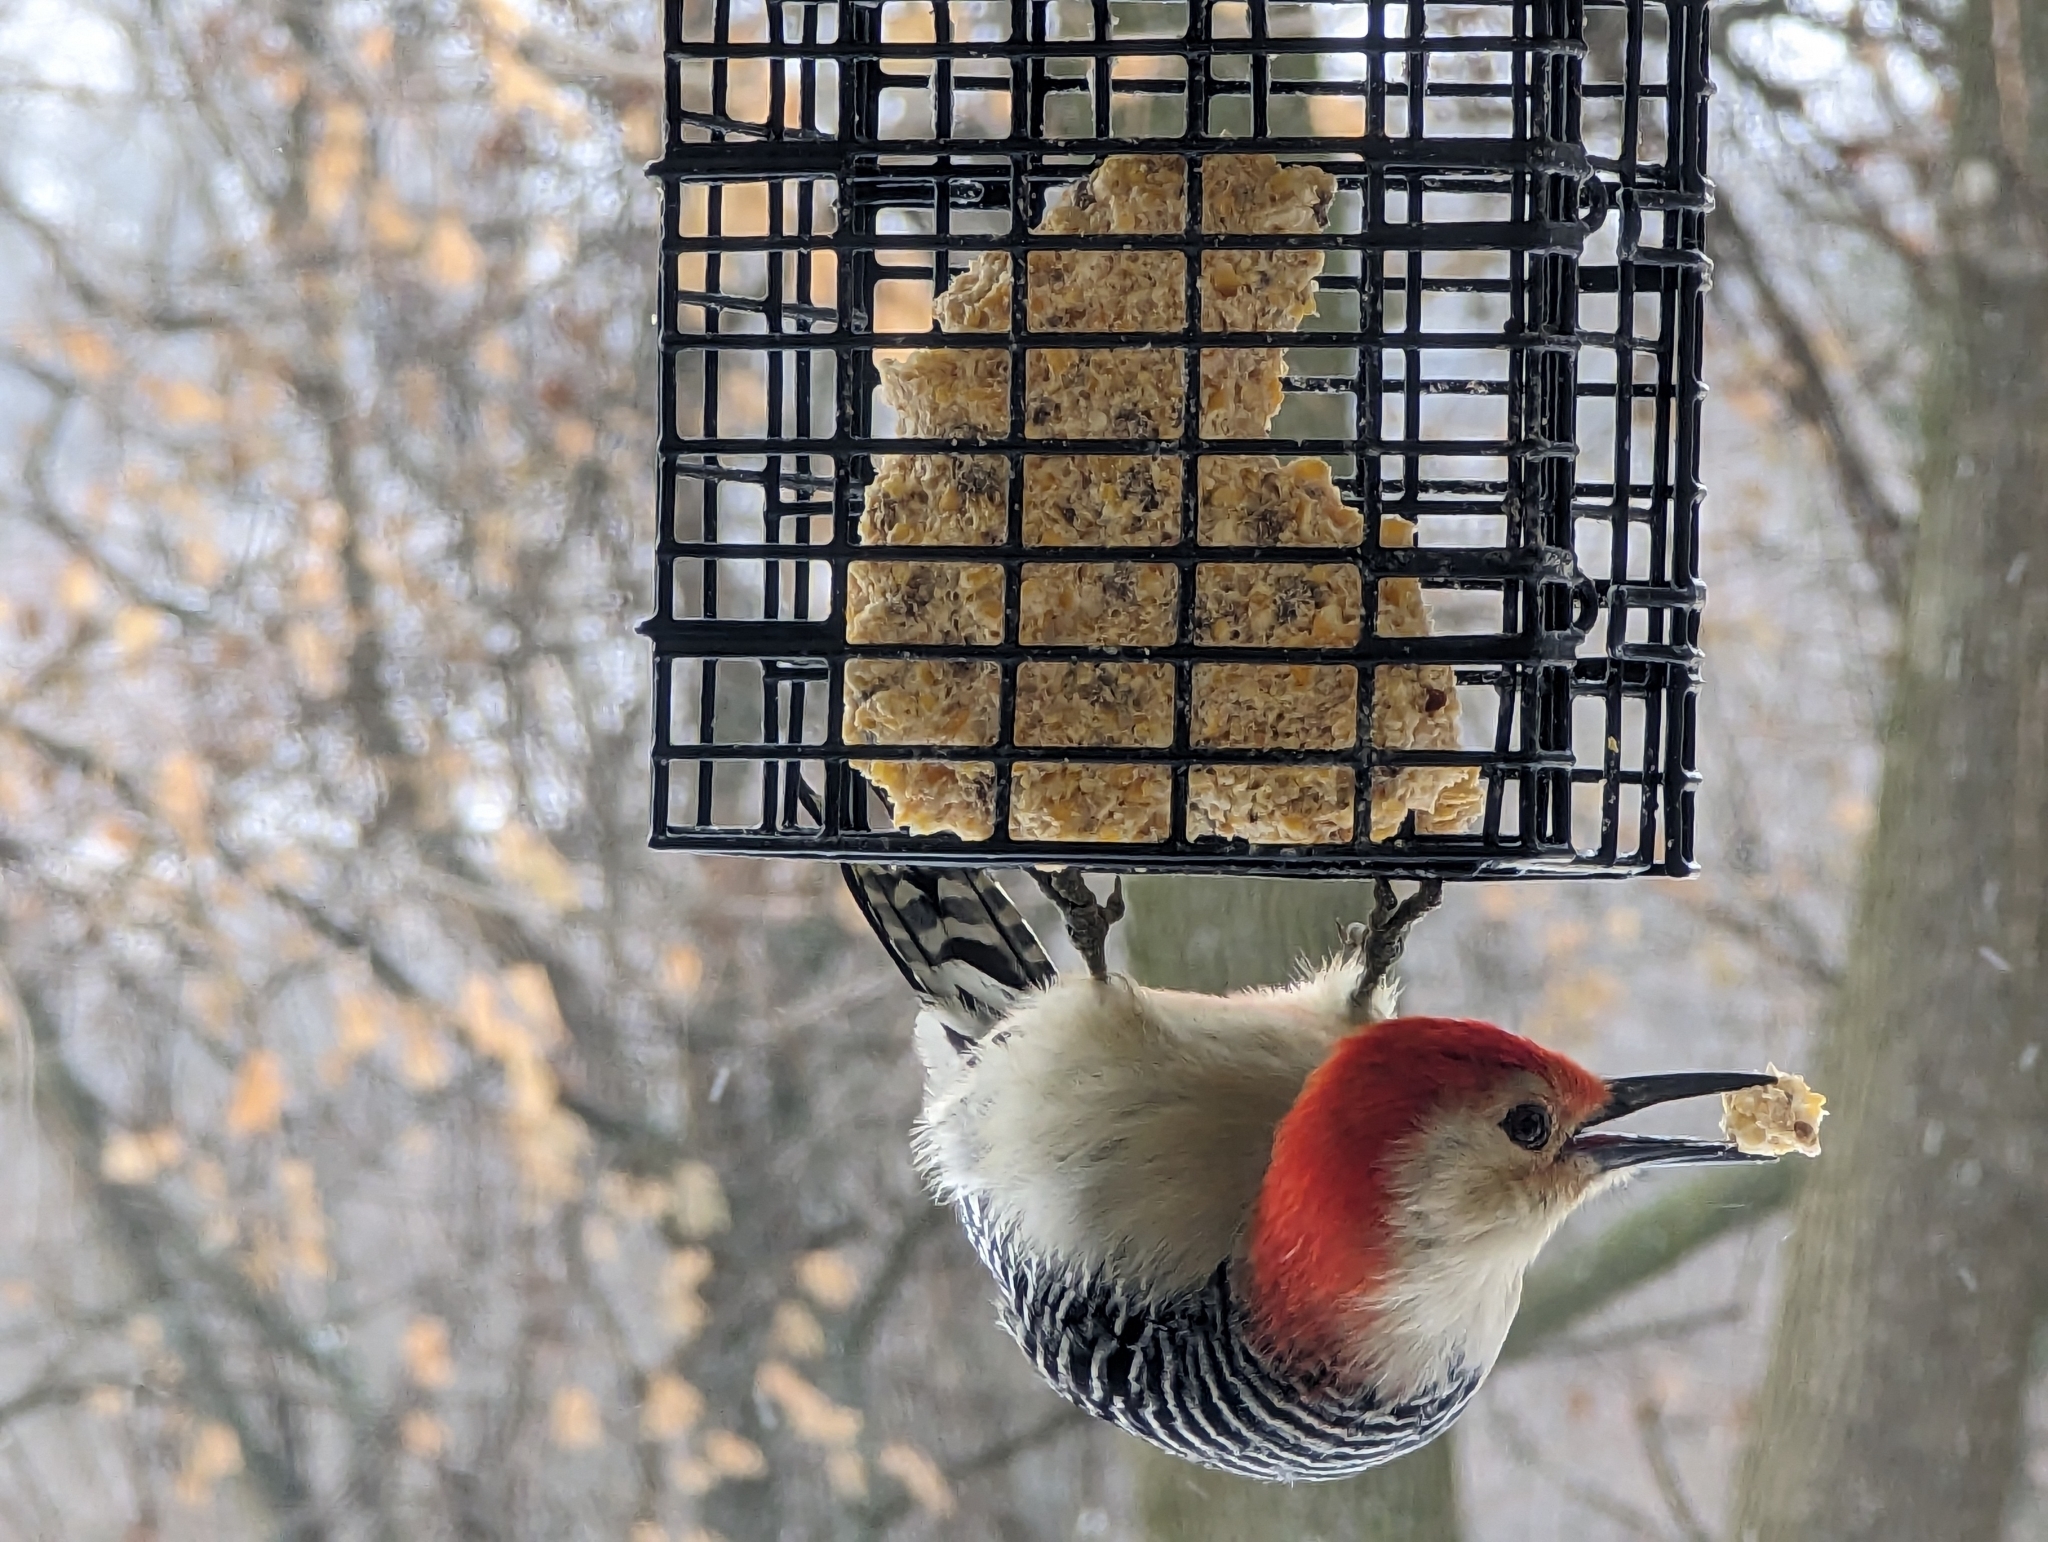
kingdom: Animalia
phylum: Chordata
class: Aves
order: Piciformes
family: Picidae
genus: Melanerpes
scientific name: Melanerpes carolinus
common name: Red-bellied woodpecker
